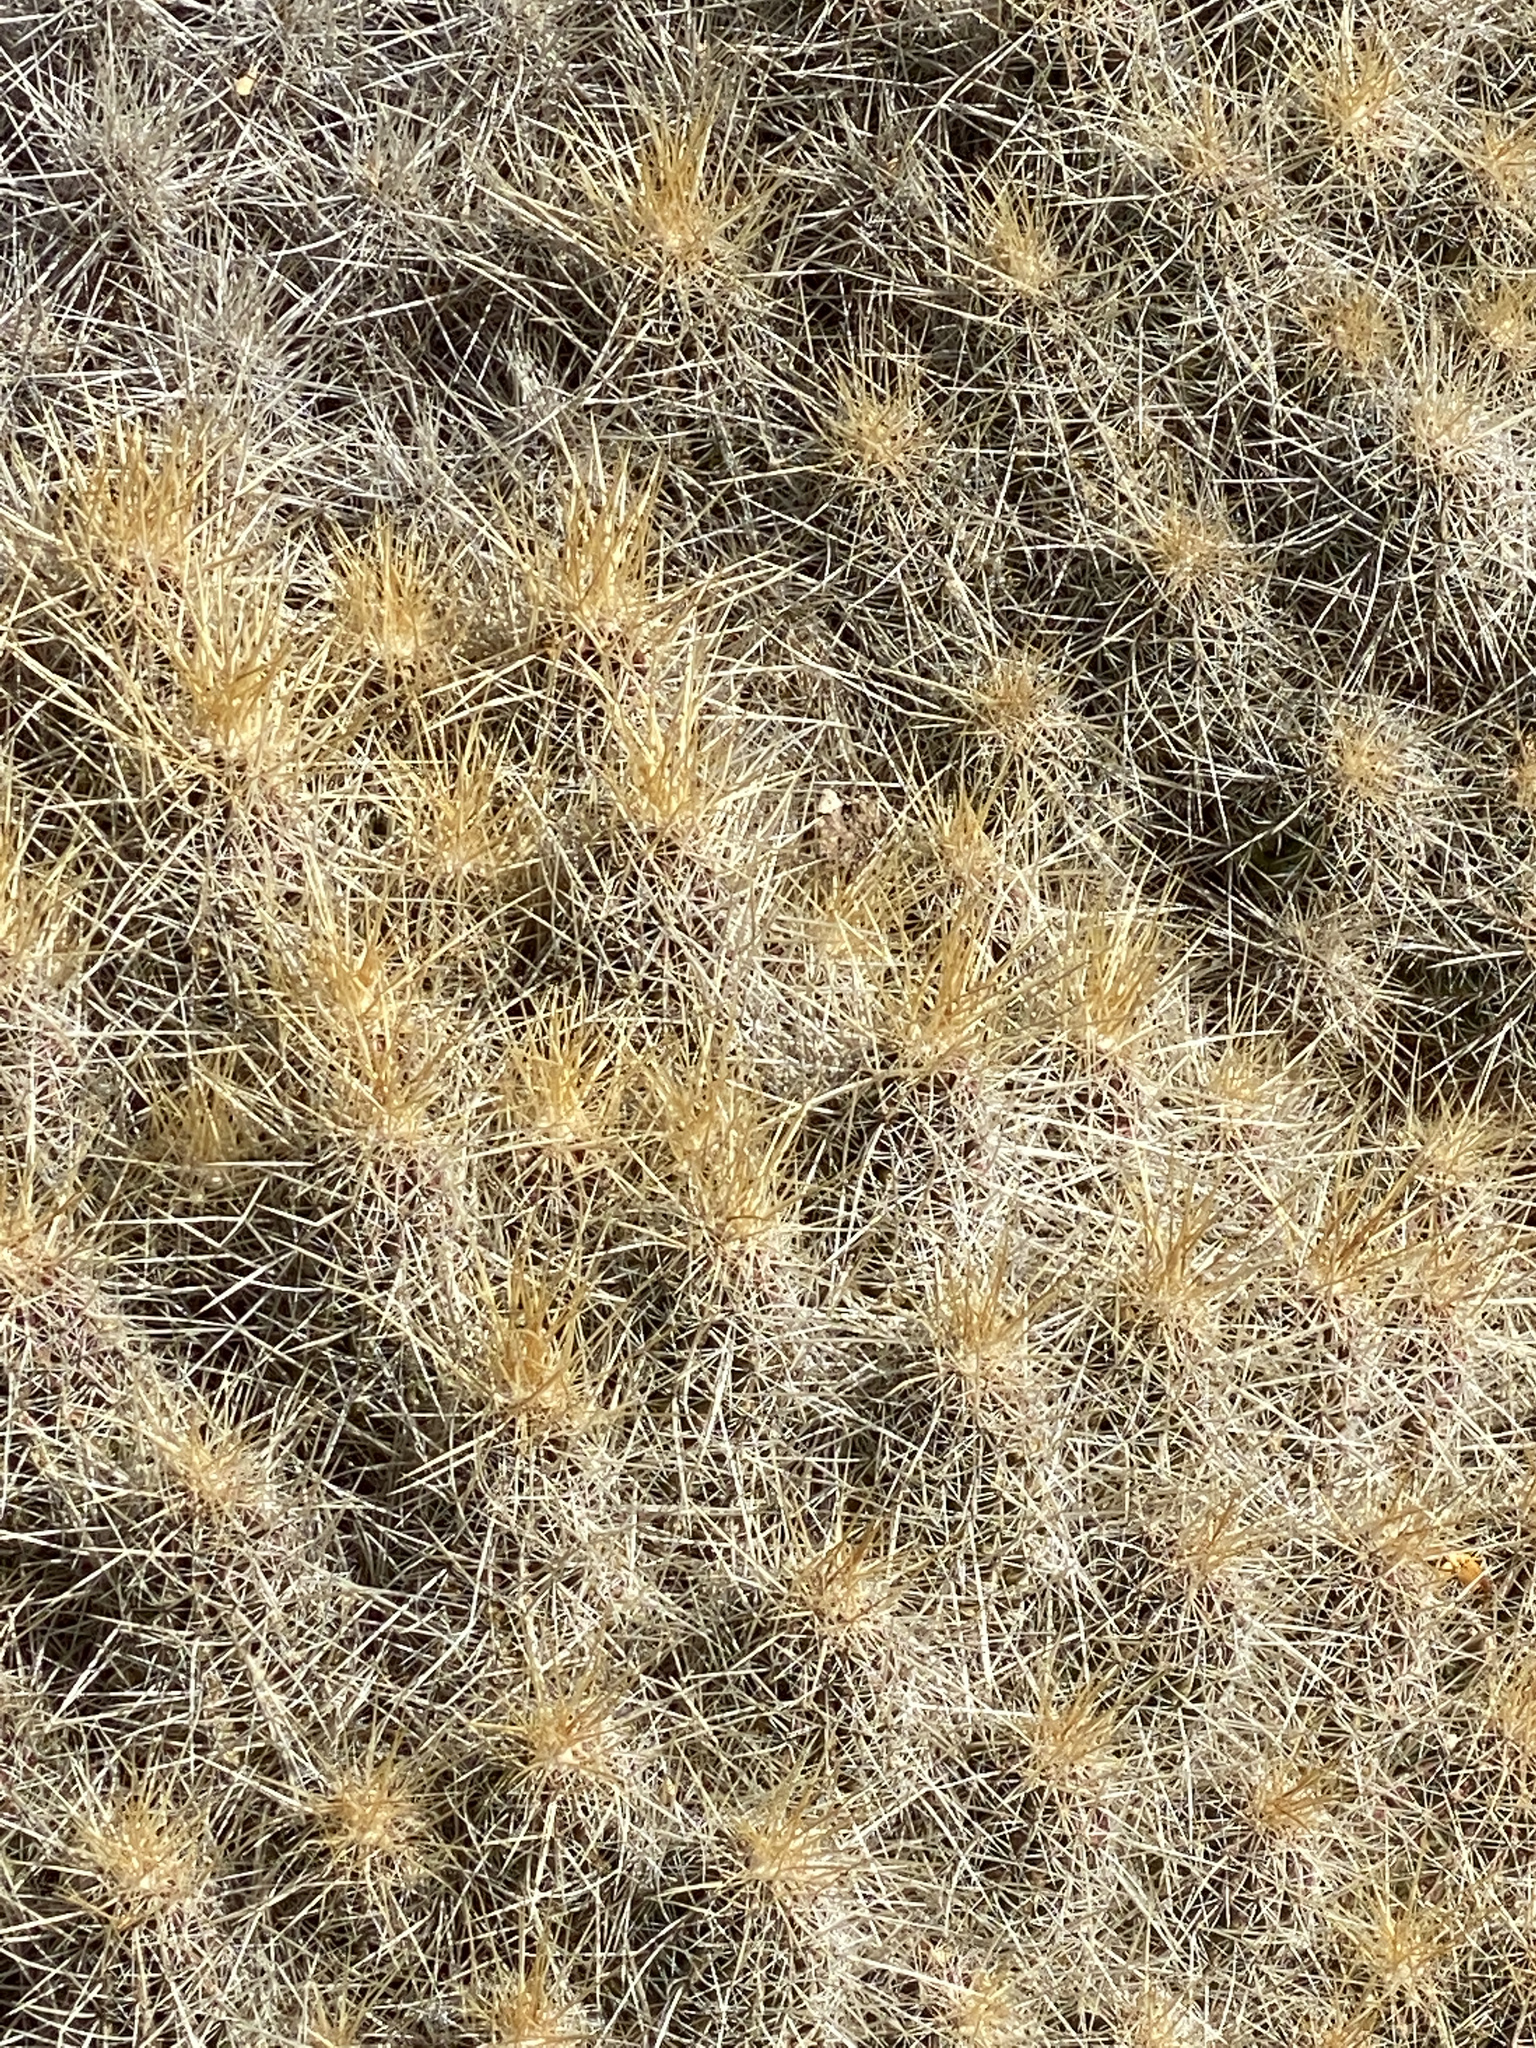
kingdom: Plantae
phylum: Tracheophyta
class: Magnoliopsida
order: Caryophyllales
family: Cactaceae
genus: Echinocereus
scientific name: Echinocereus stramineus
